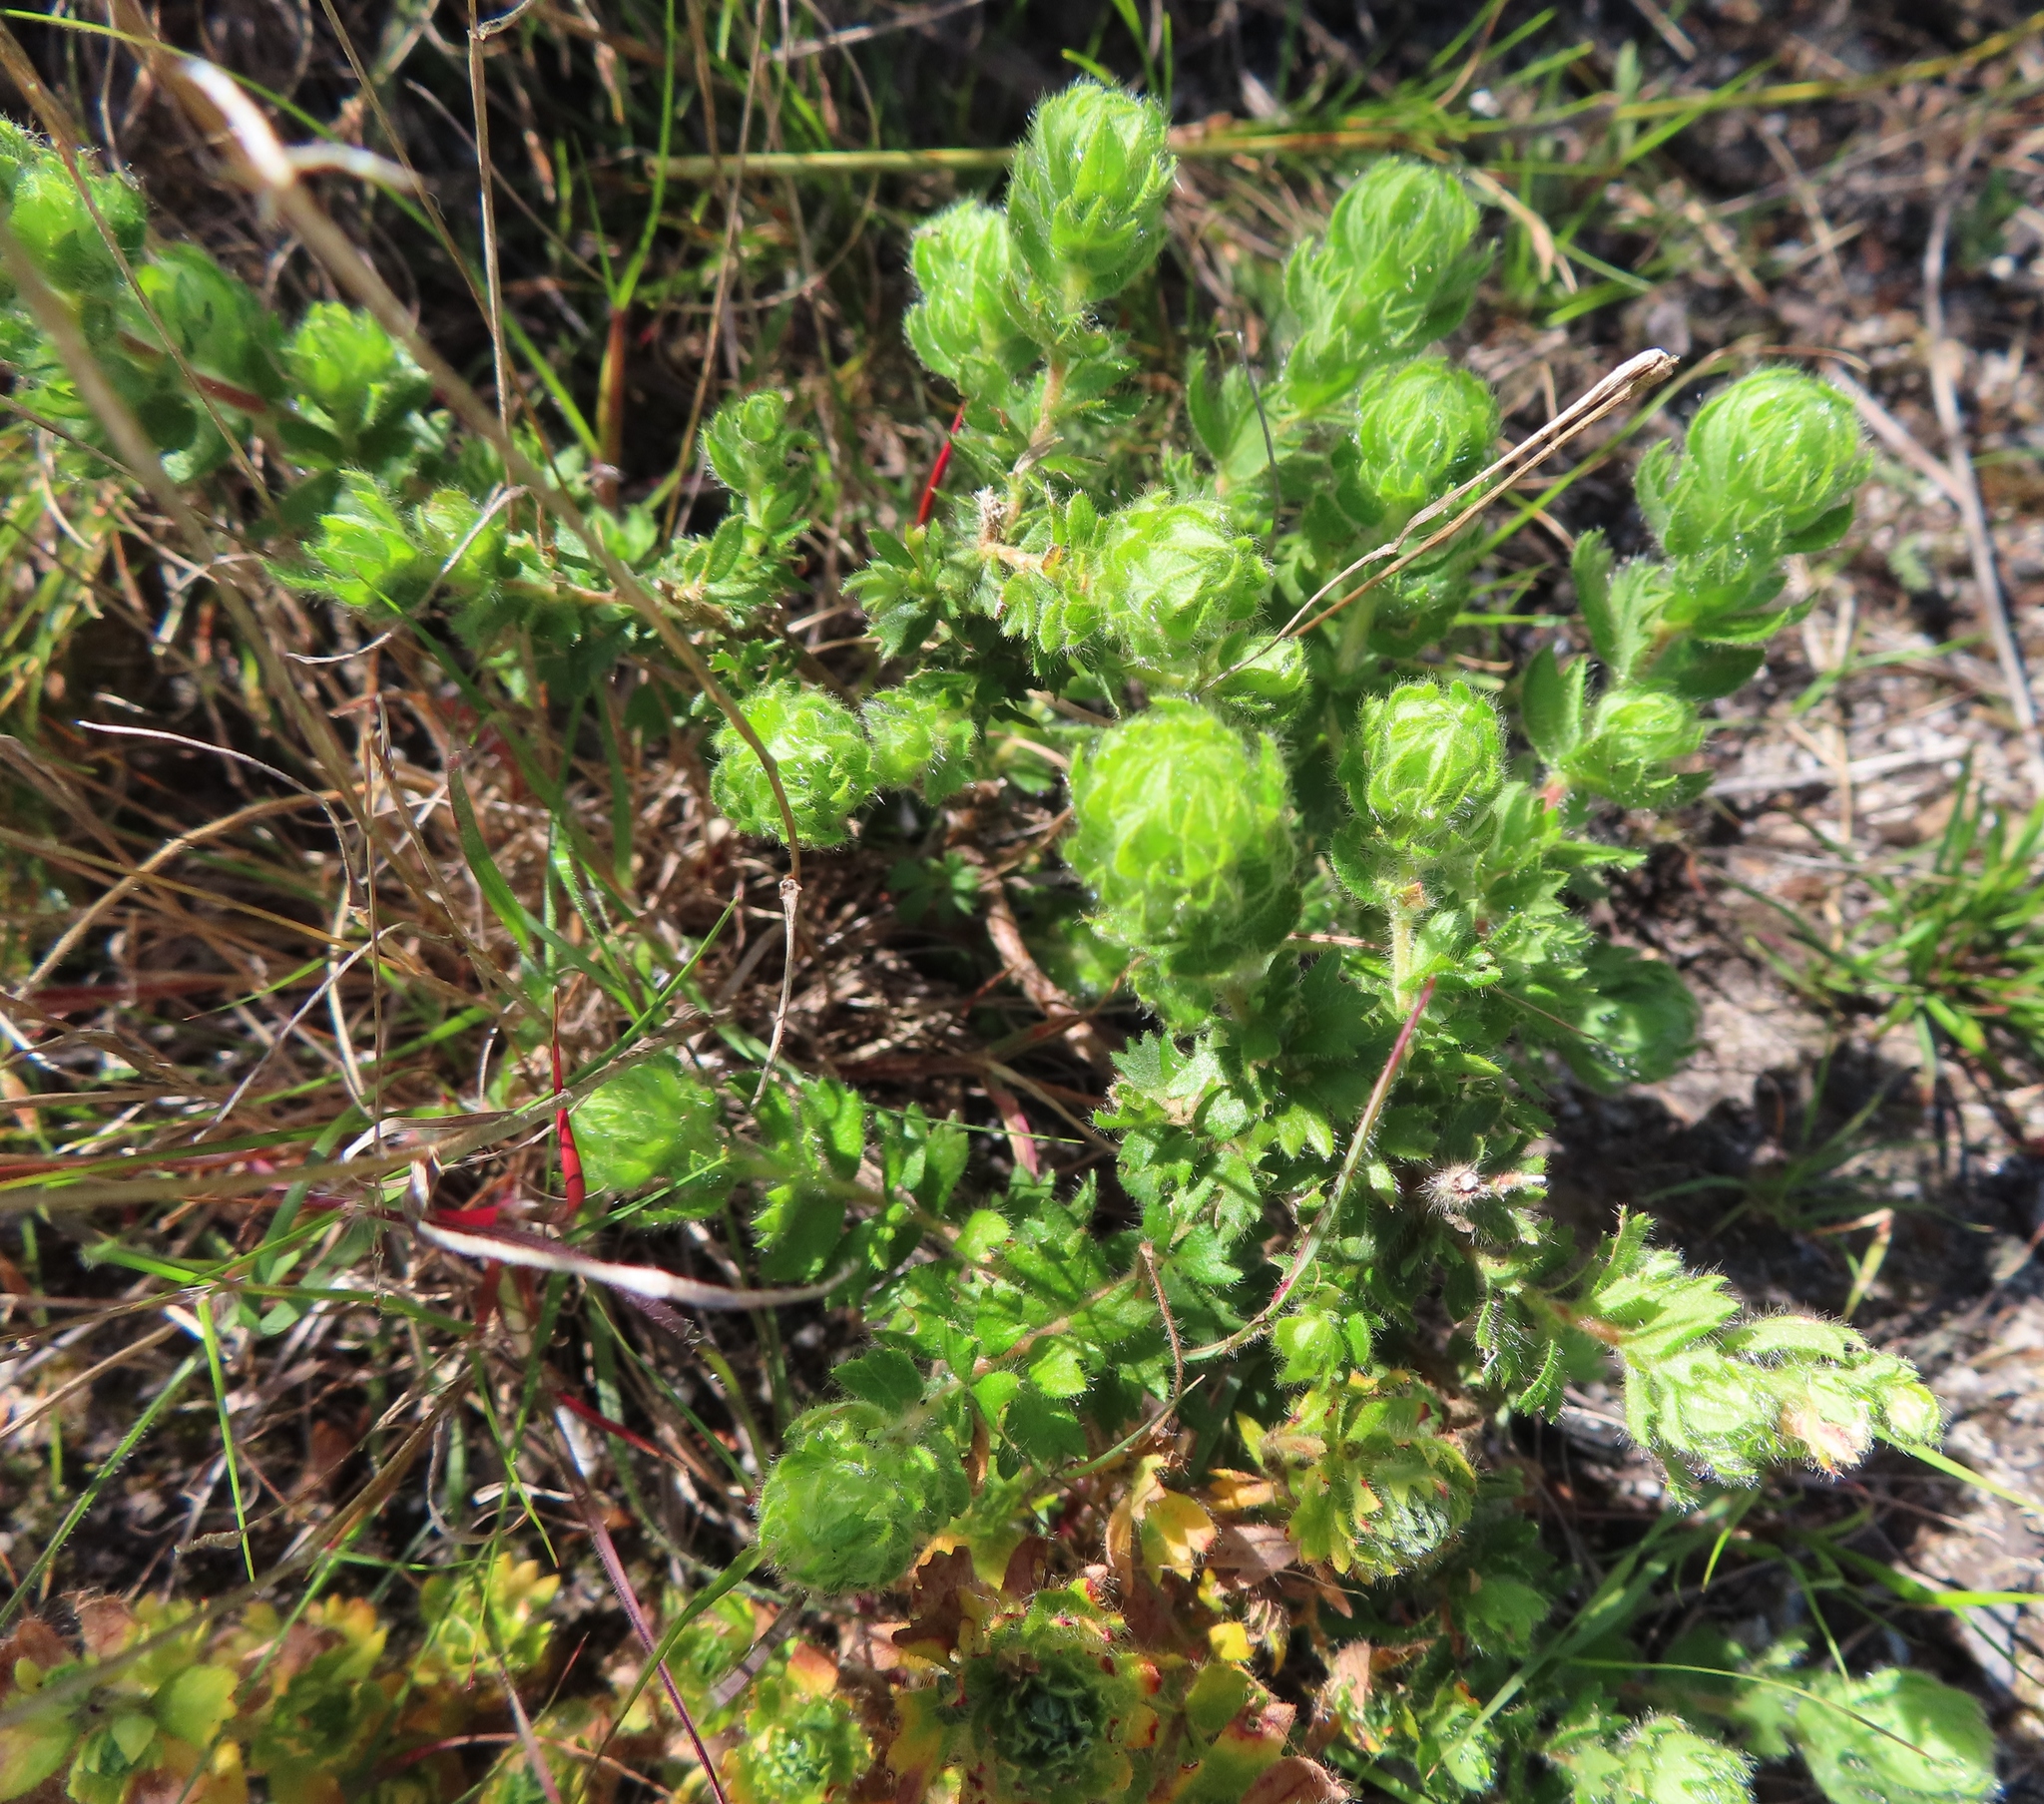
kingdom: Plantae
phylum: Tracheophyta
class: Magnoliopsida
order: Rosales
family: Rosaceae
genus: Cliffortia
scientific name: Cliffortia polygonifolia
